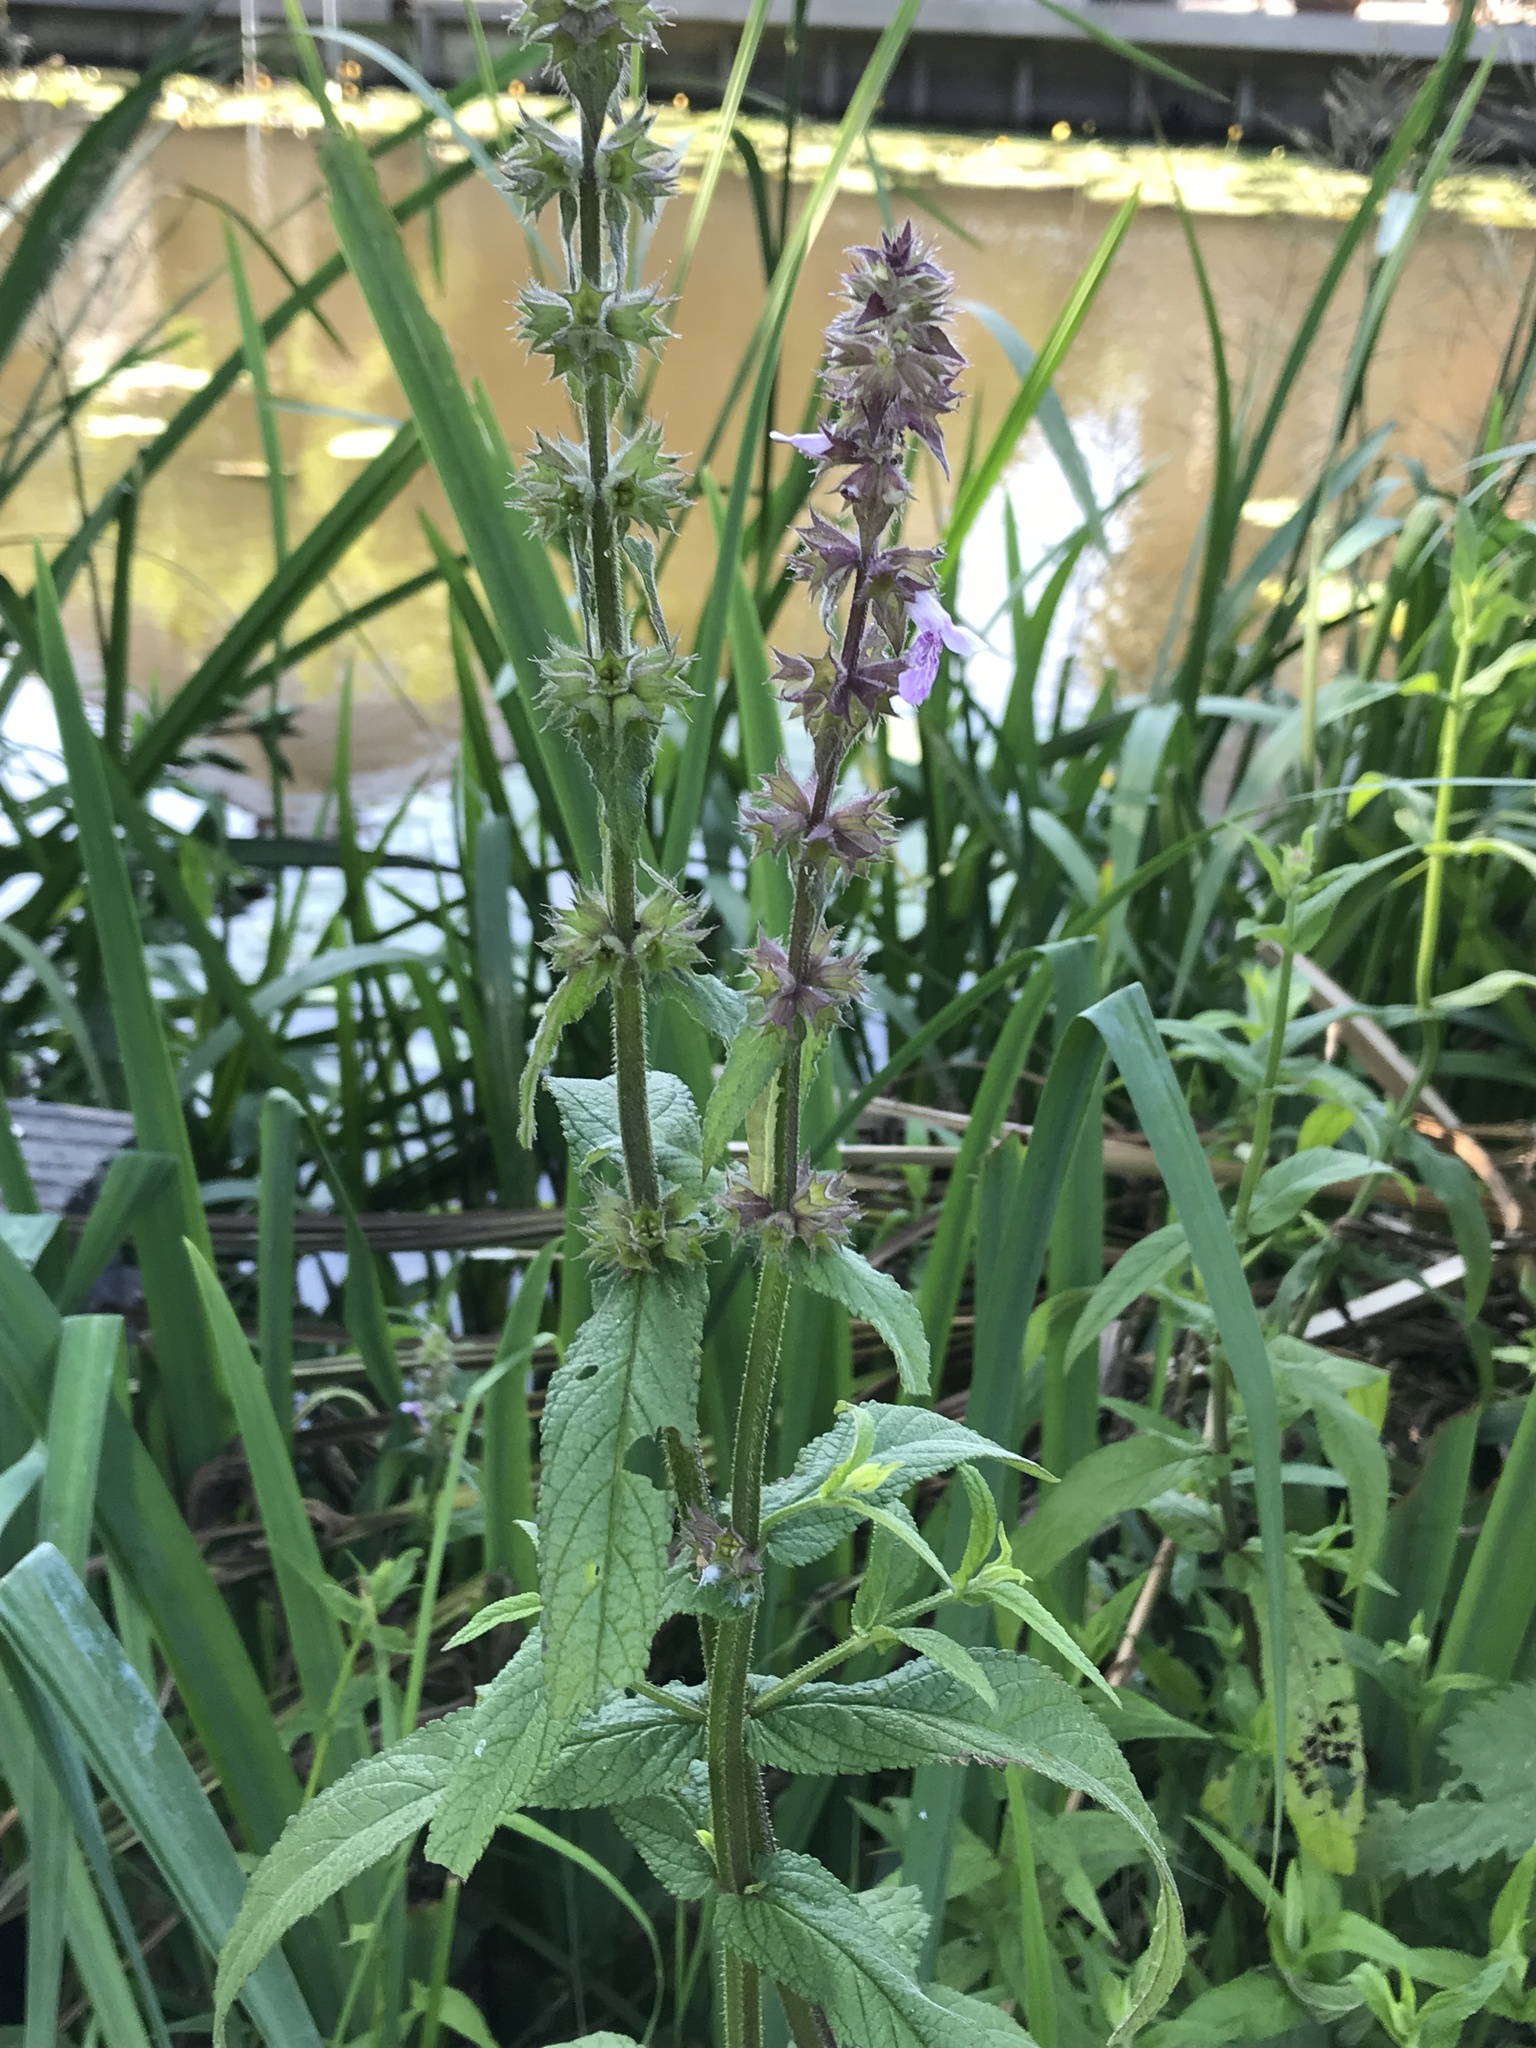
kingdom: Plantae
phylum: Tracheophyta
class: Magnoliopsida
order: Lamiales
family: Lamiaceae
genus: Stachys
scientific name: Stachys palustris
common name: Marsh woundwort
